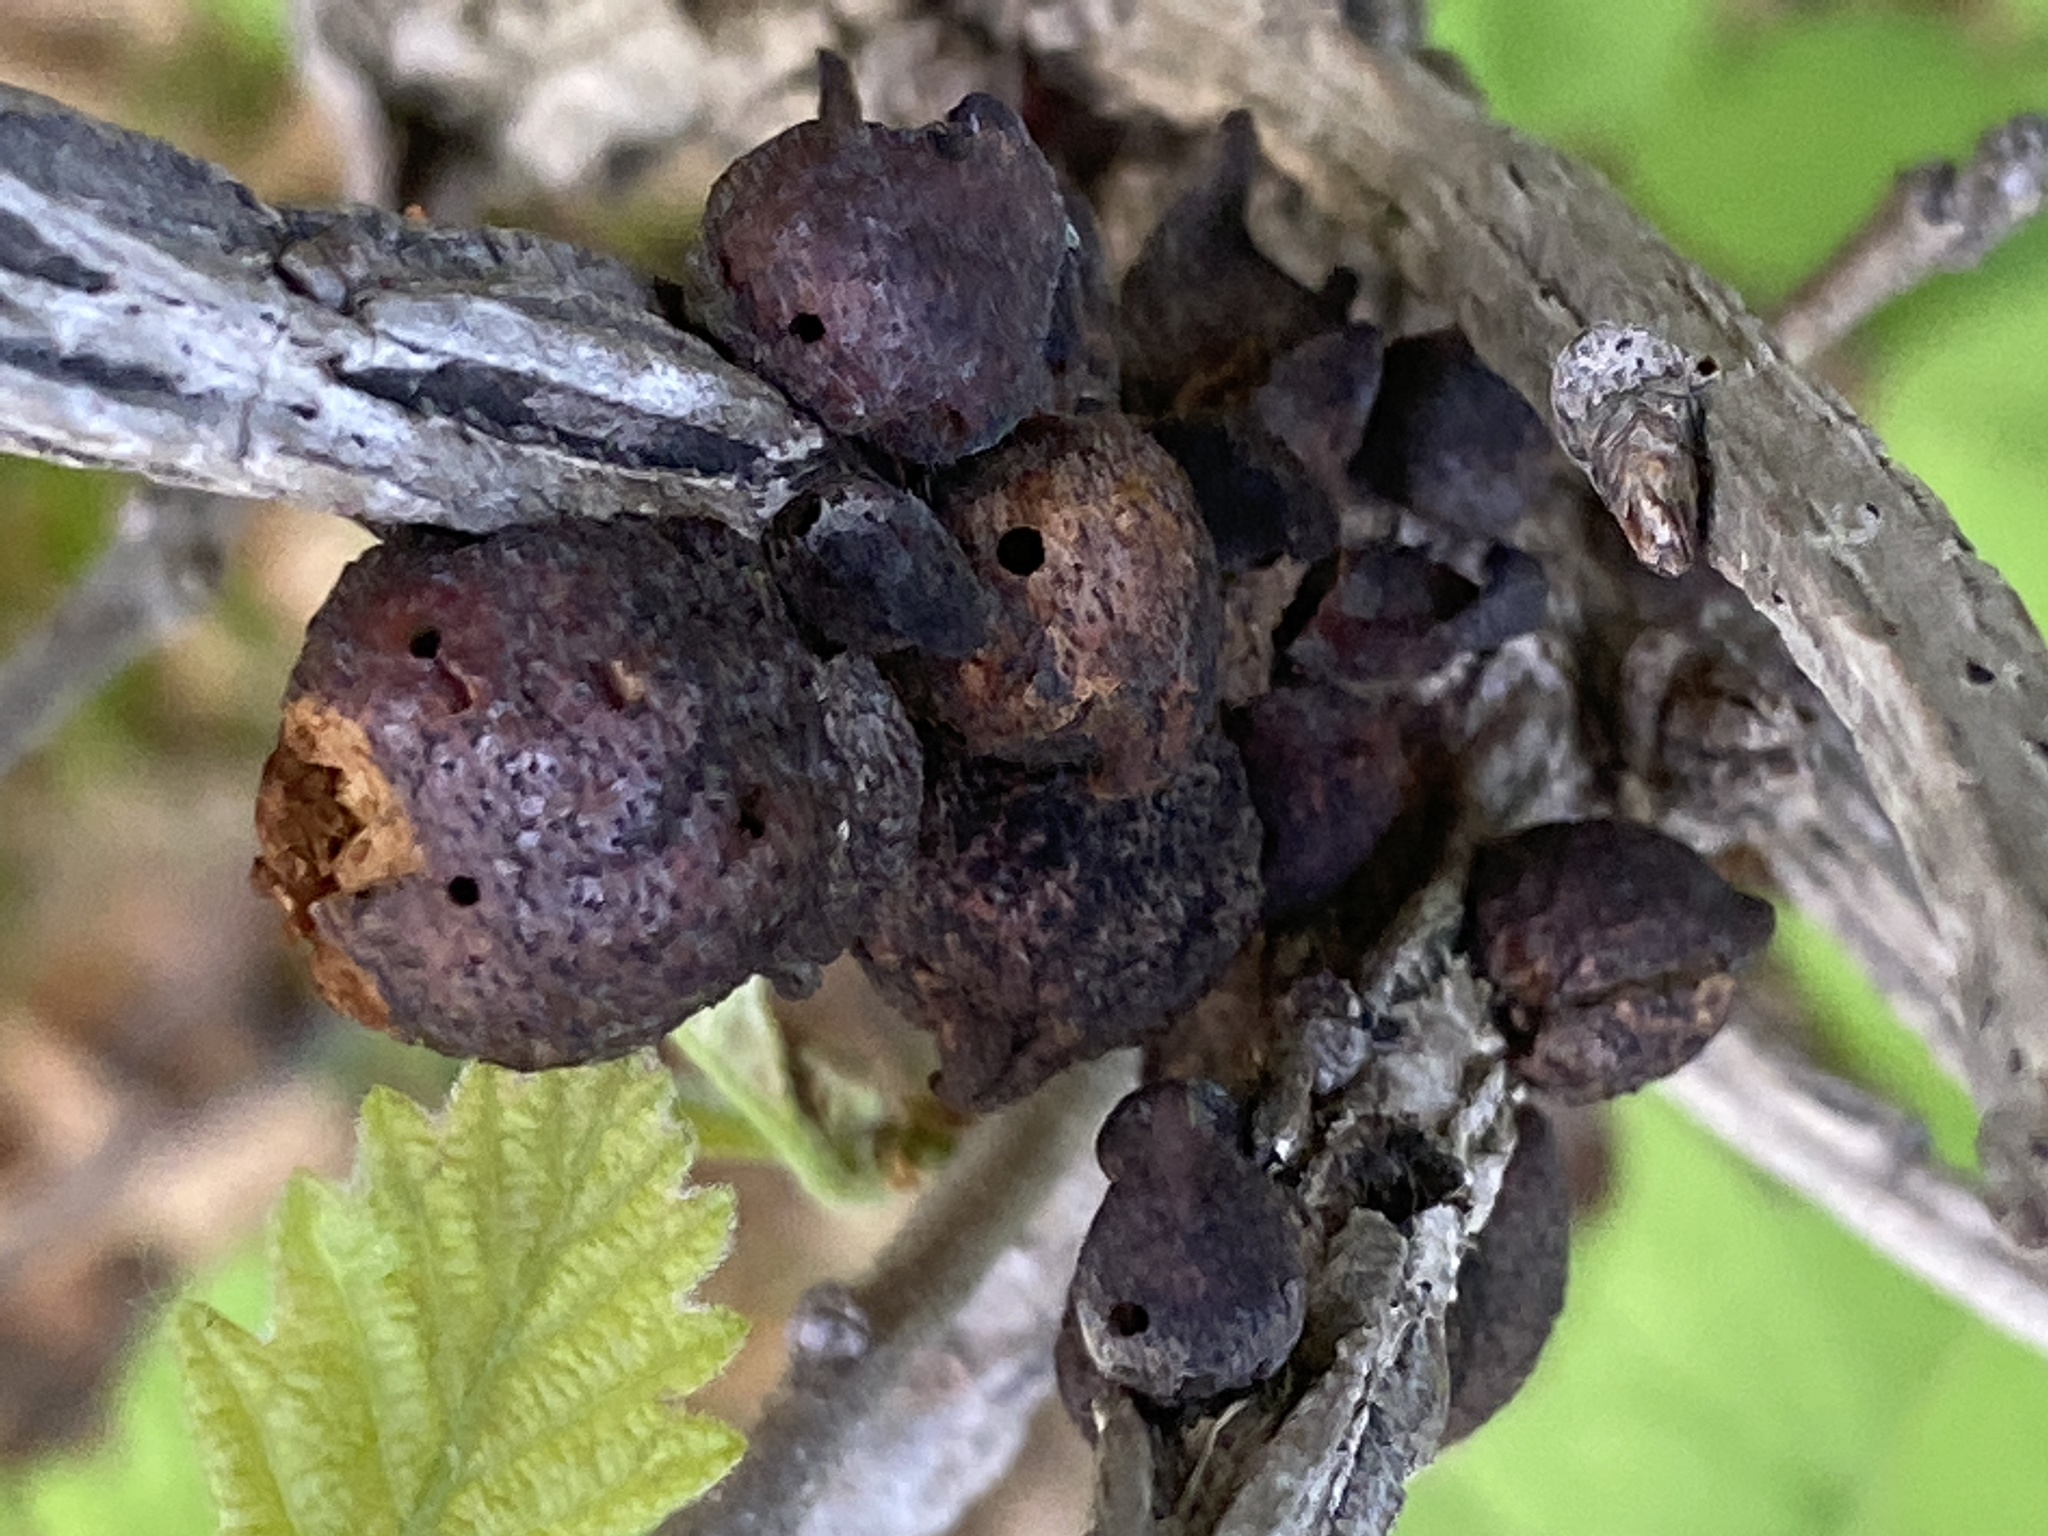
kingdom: Animalia
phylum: Arthropoda
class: Insecta
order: Hymenoptera
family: Cynipidae
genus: Disholcaspis
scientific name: Disholcaspis
